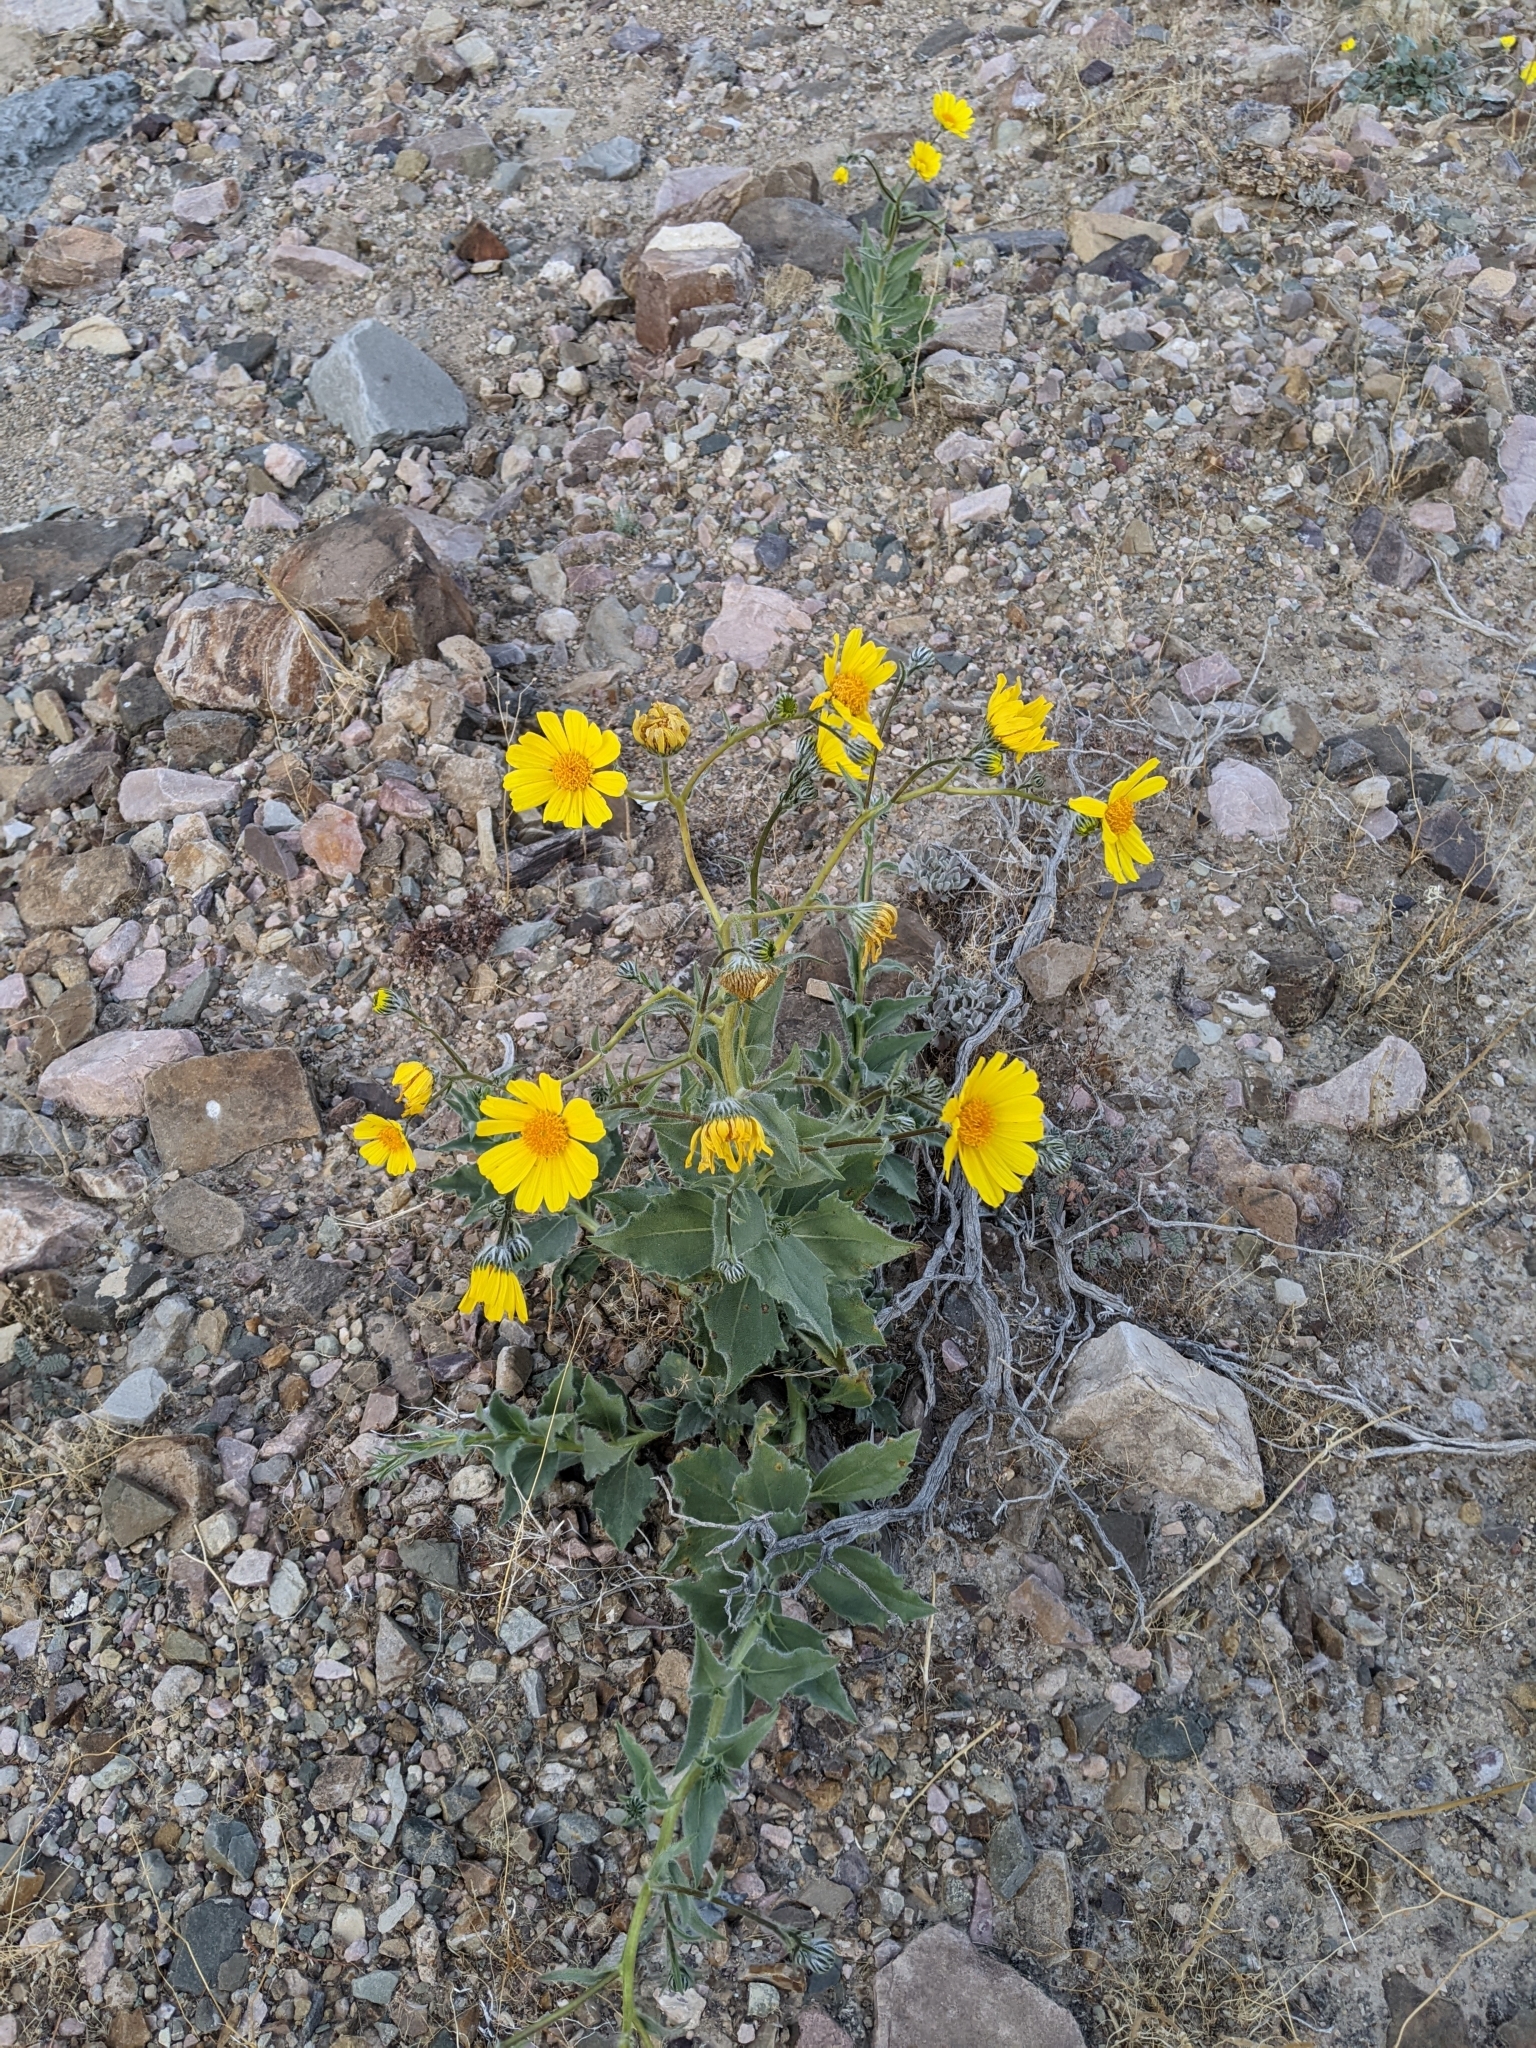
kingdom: Plantae
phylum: Tracheophyta
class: Magnoliopsida
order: Asterales
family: Asteraceae
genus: Geraea
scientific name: Geraea canescens
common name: Desert-gold
